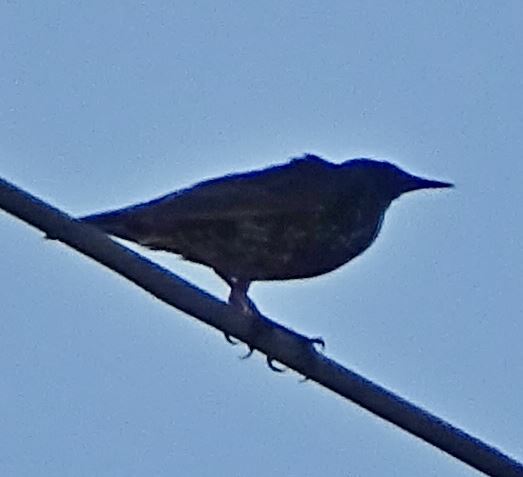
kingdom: Animalia
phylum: Chordata
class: Aves
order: Passeriformes
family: Sturnidae
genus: Sturnus
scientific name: Sturnus vulgaris
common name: Common starling
